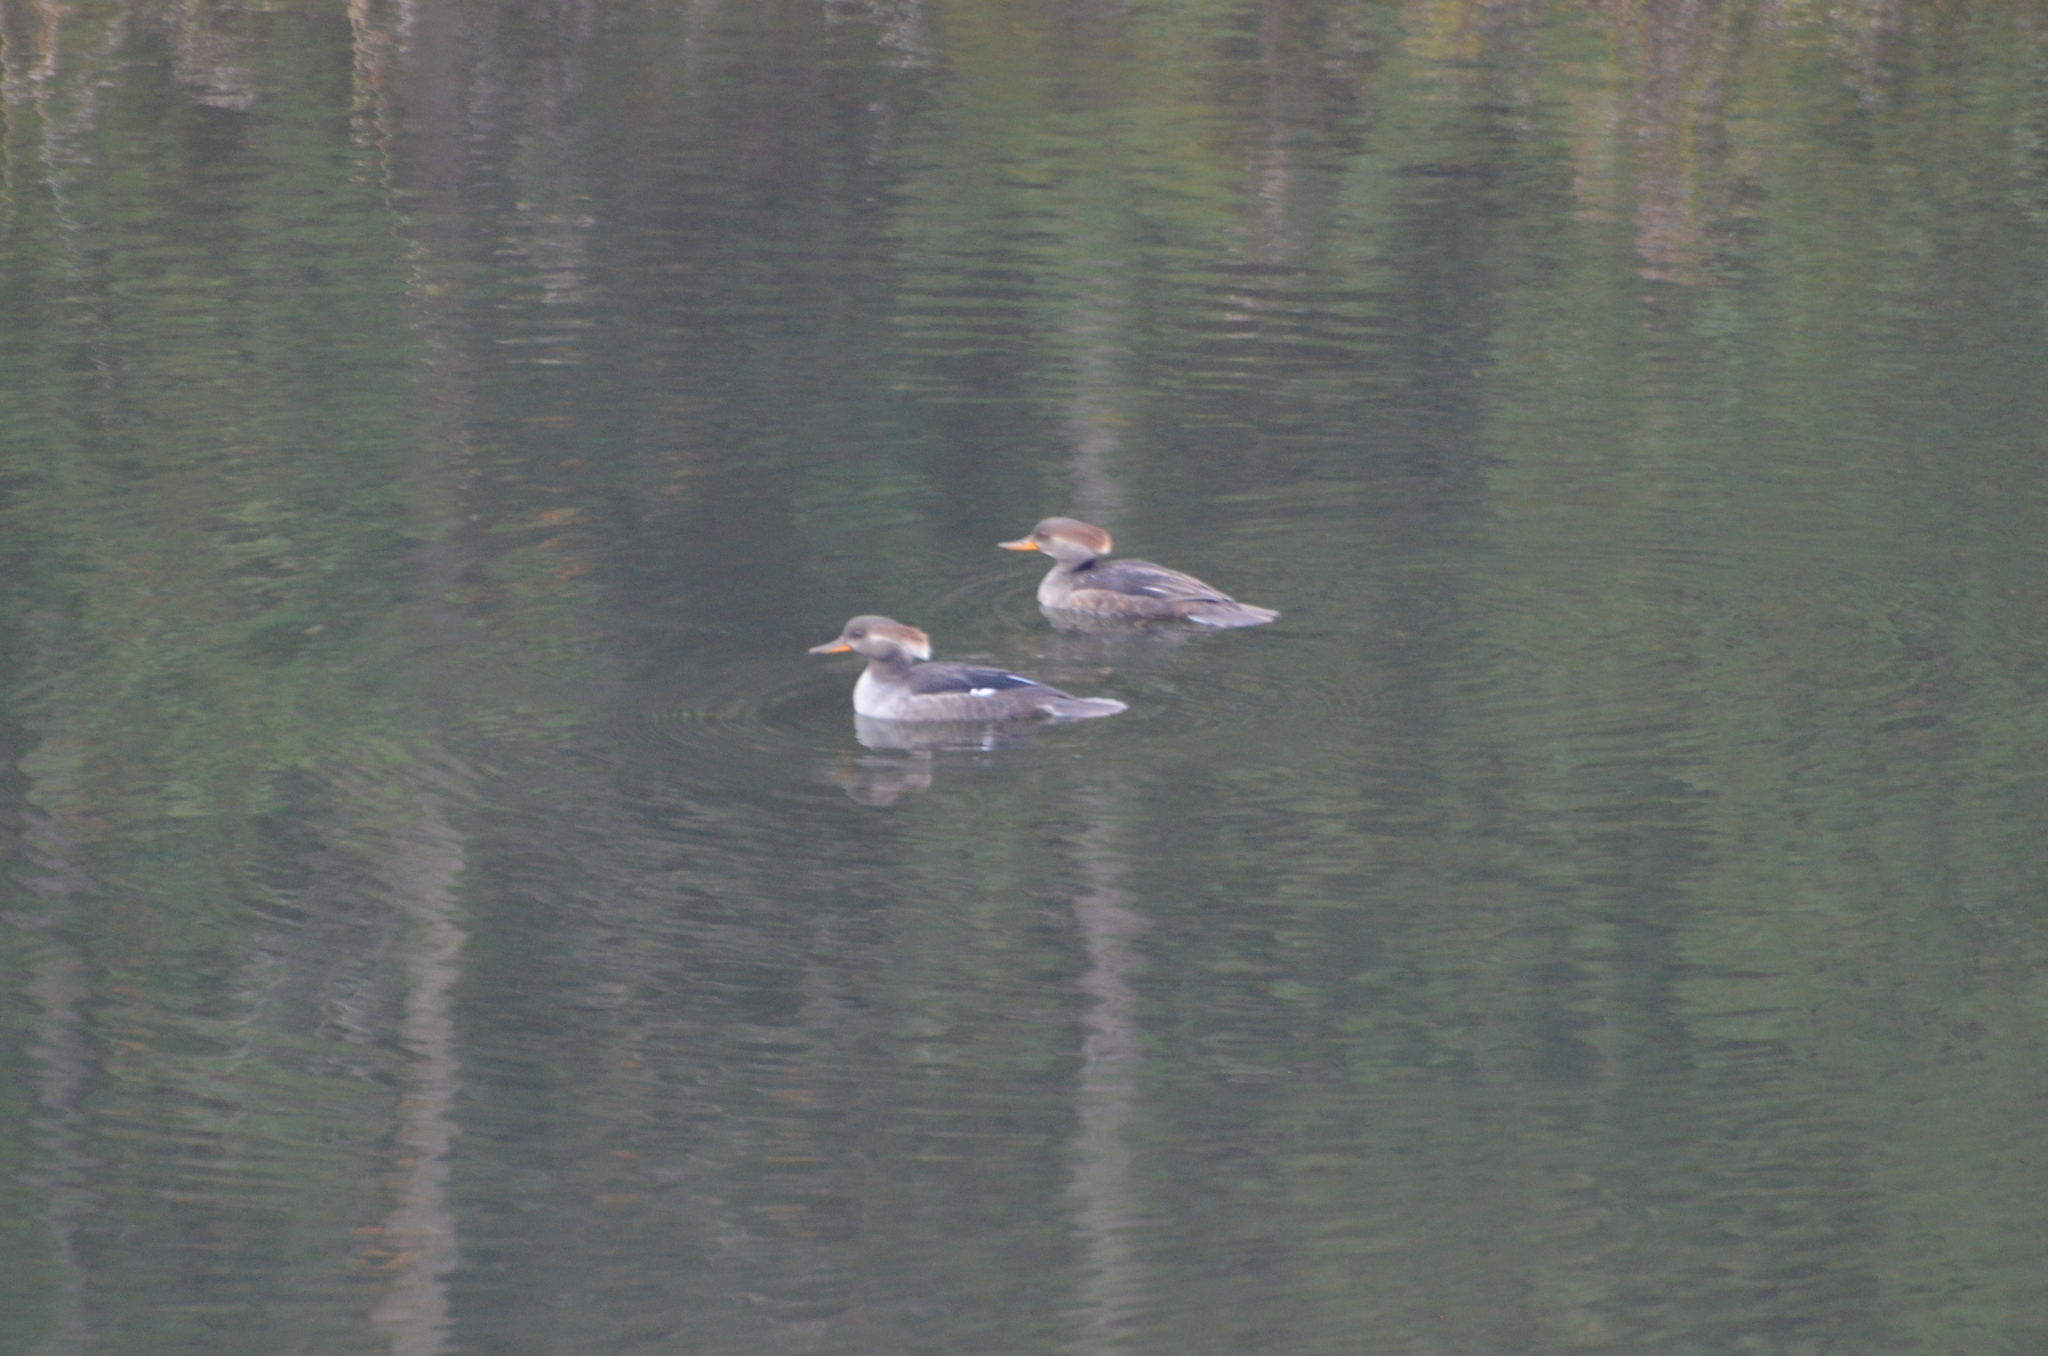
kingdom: Animalia
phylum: Chordata
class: Aves
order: Anseriformes
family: Anatidae
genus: Lophodytes
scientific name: Lophodytes cucullatus
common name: Hooded merganser
